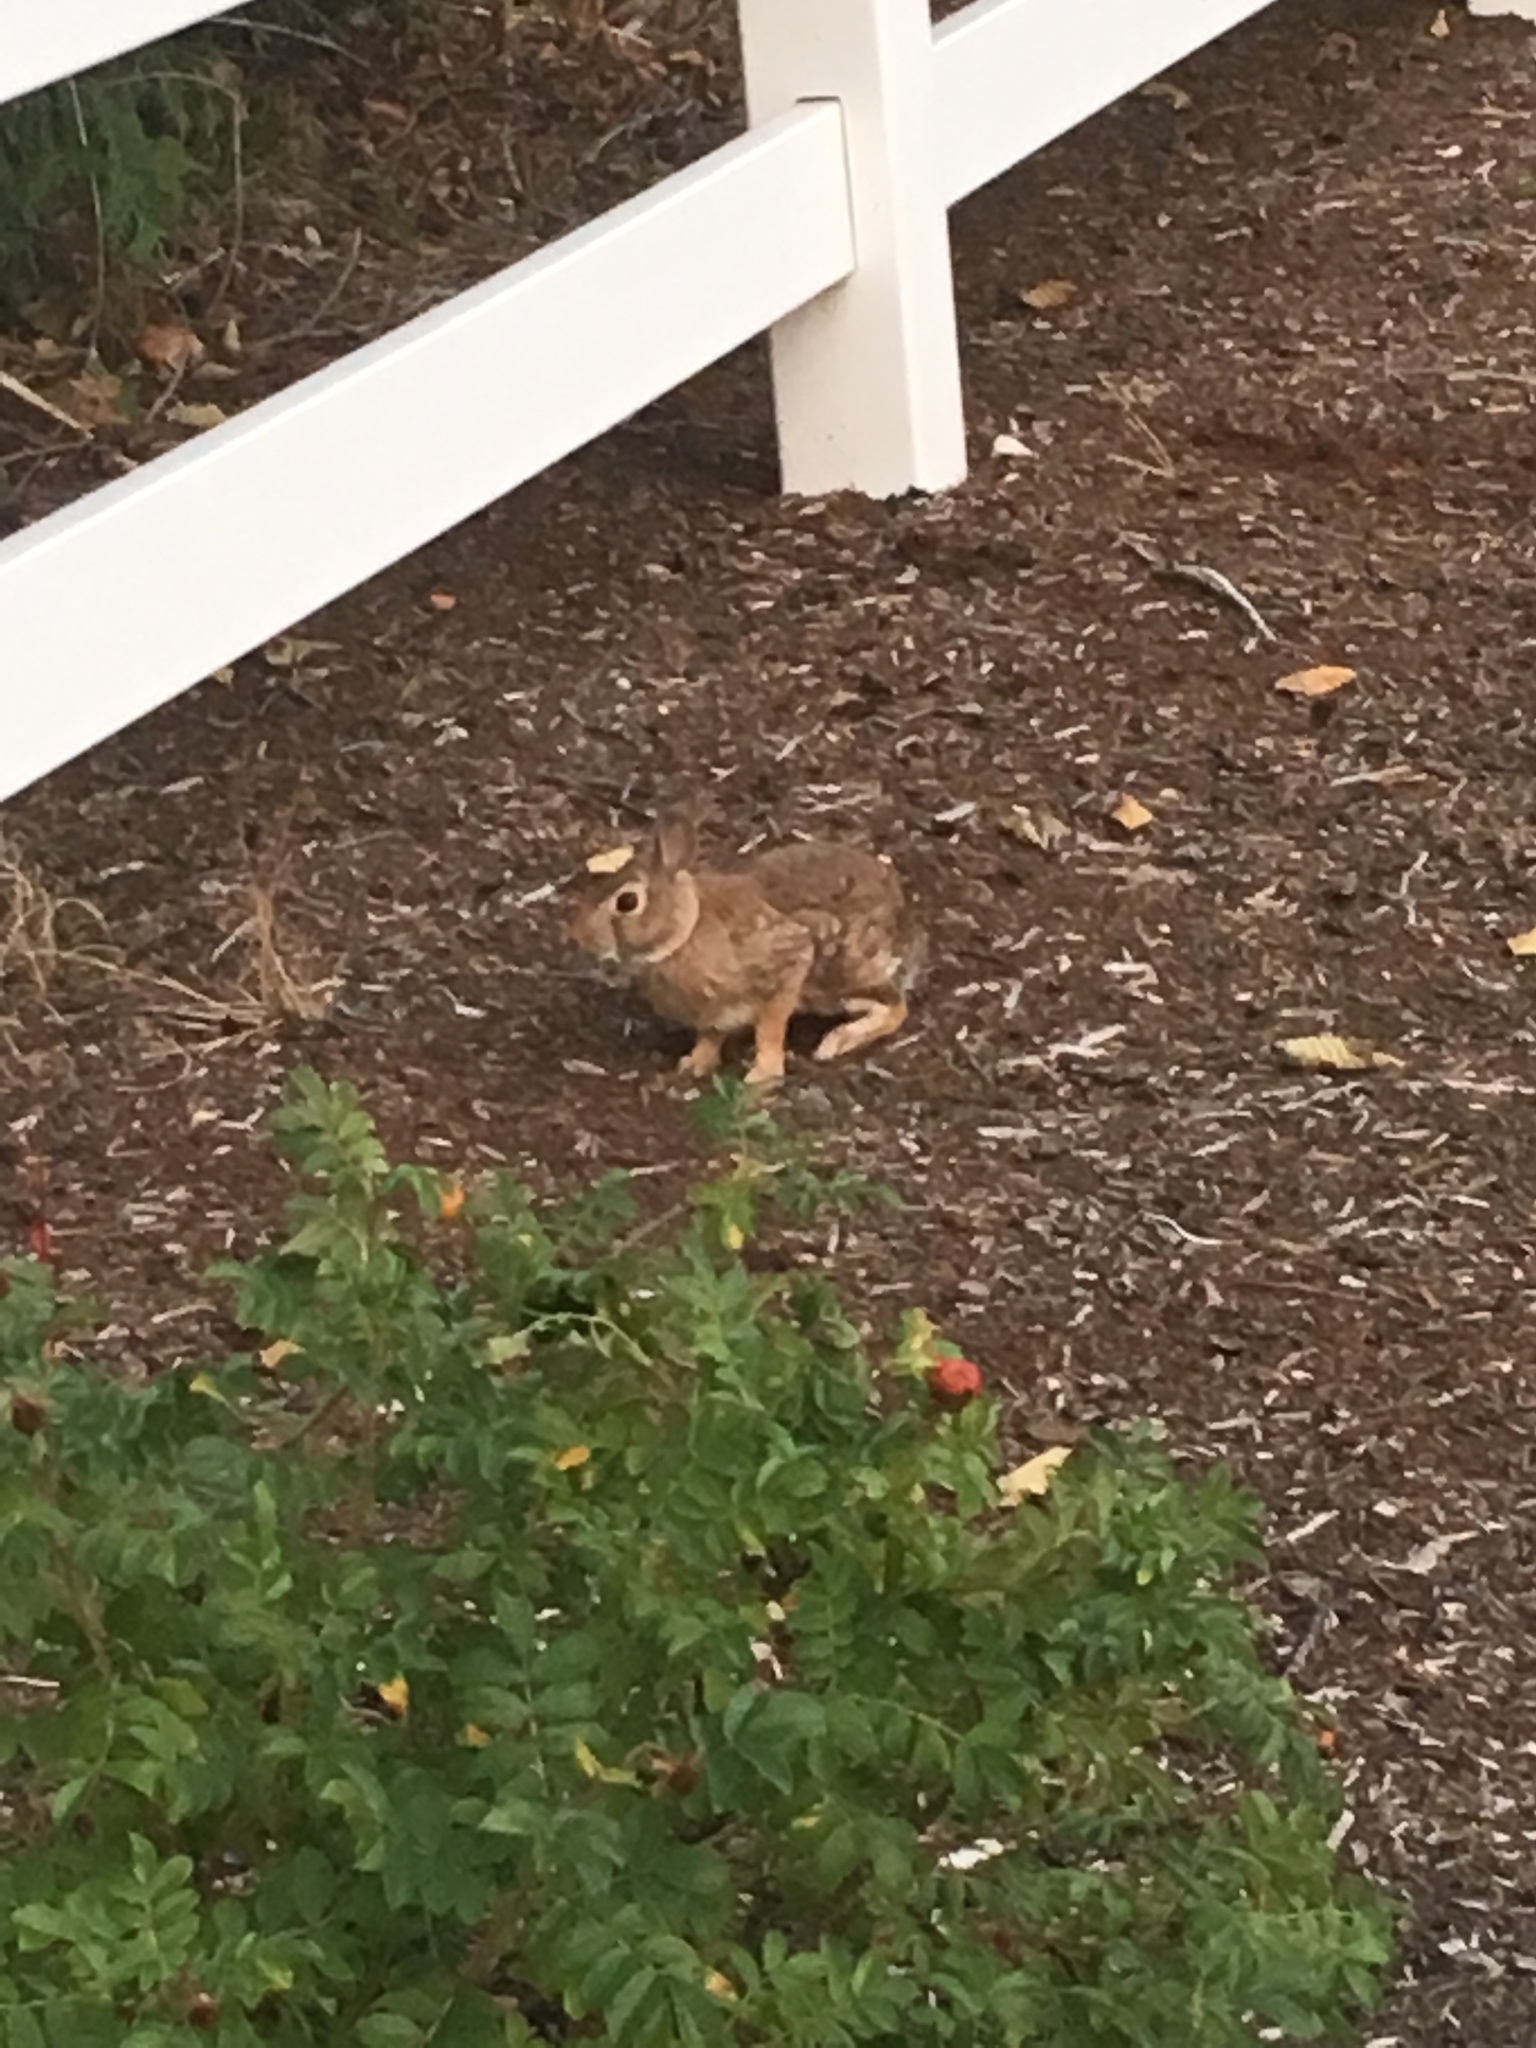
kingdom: Animalia
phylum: Chordata
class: Mammalia
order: Lagomorpha
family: Leporidae
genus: Sylvilagus
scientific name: Sylvilagus floridanus
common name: Eastern cottontail
